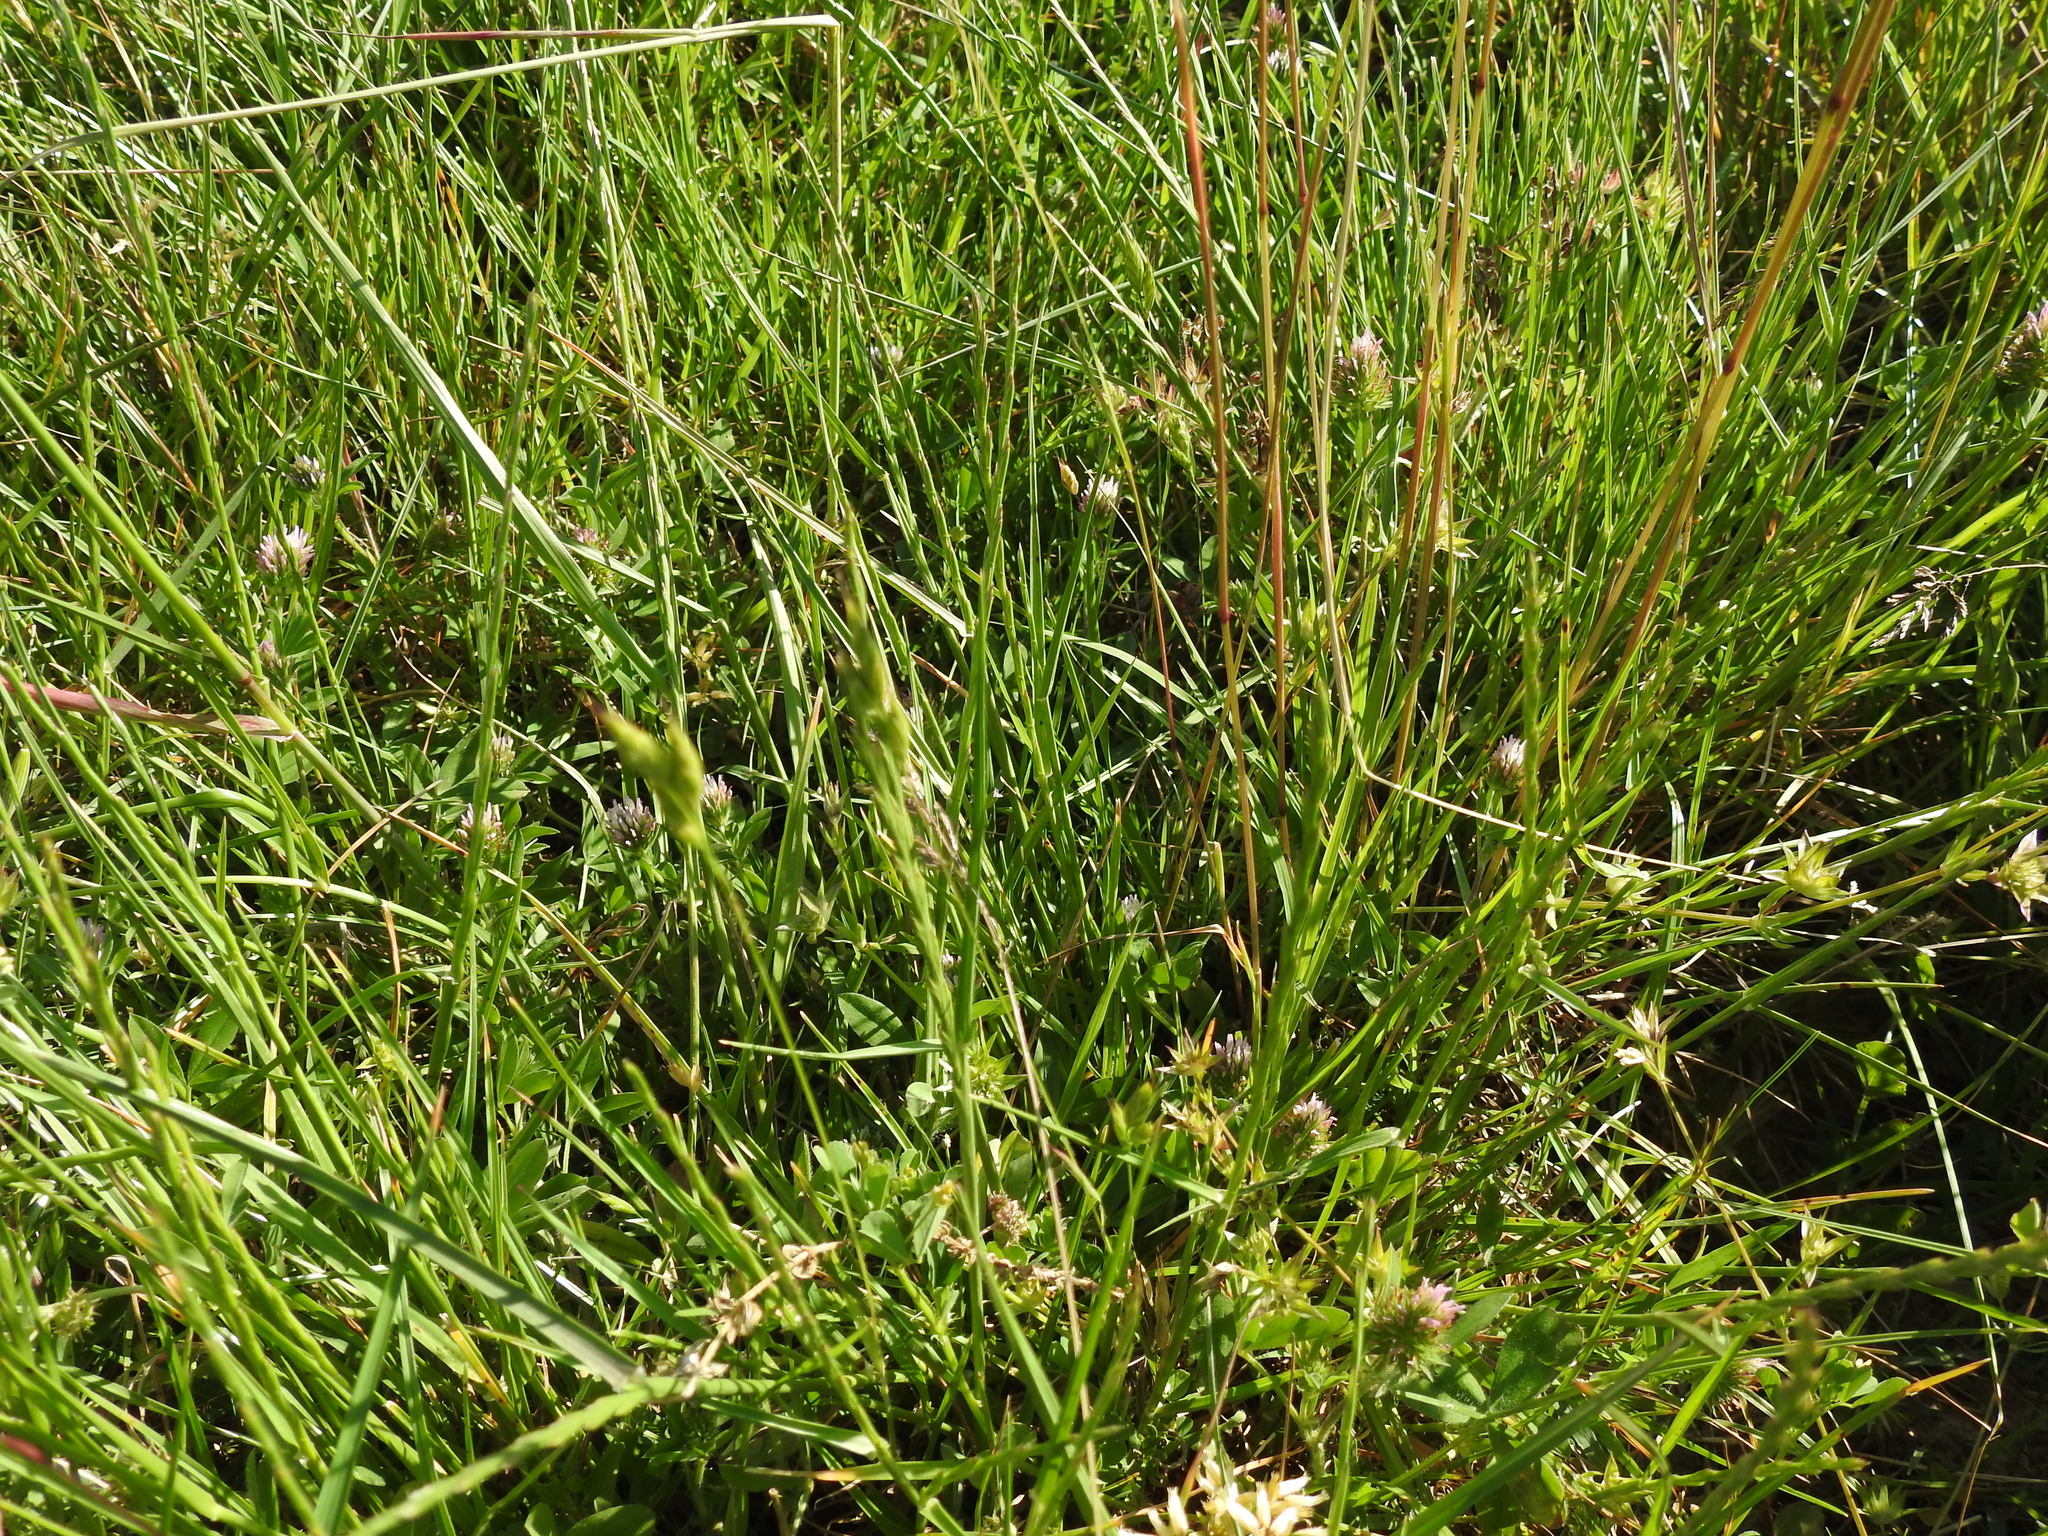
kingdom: Plantae
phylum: Tracheophyta
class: Magnoliopsida
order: Fabales
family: Fabaceae
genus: Trifolium
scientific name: Trifolium squamosum
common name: Sea clover
